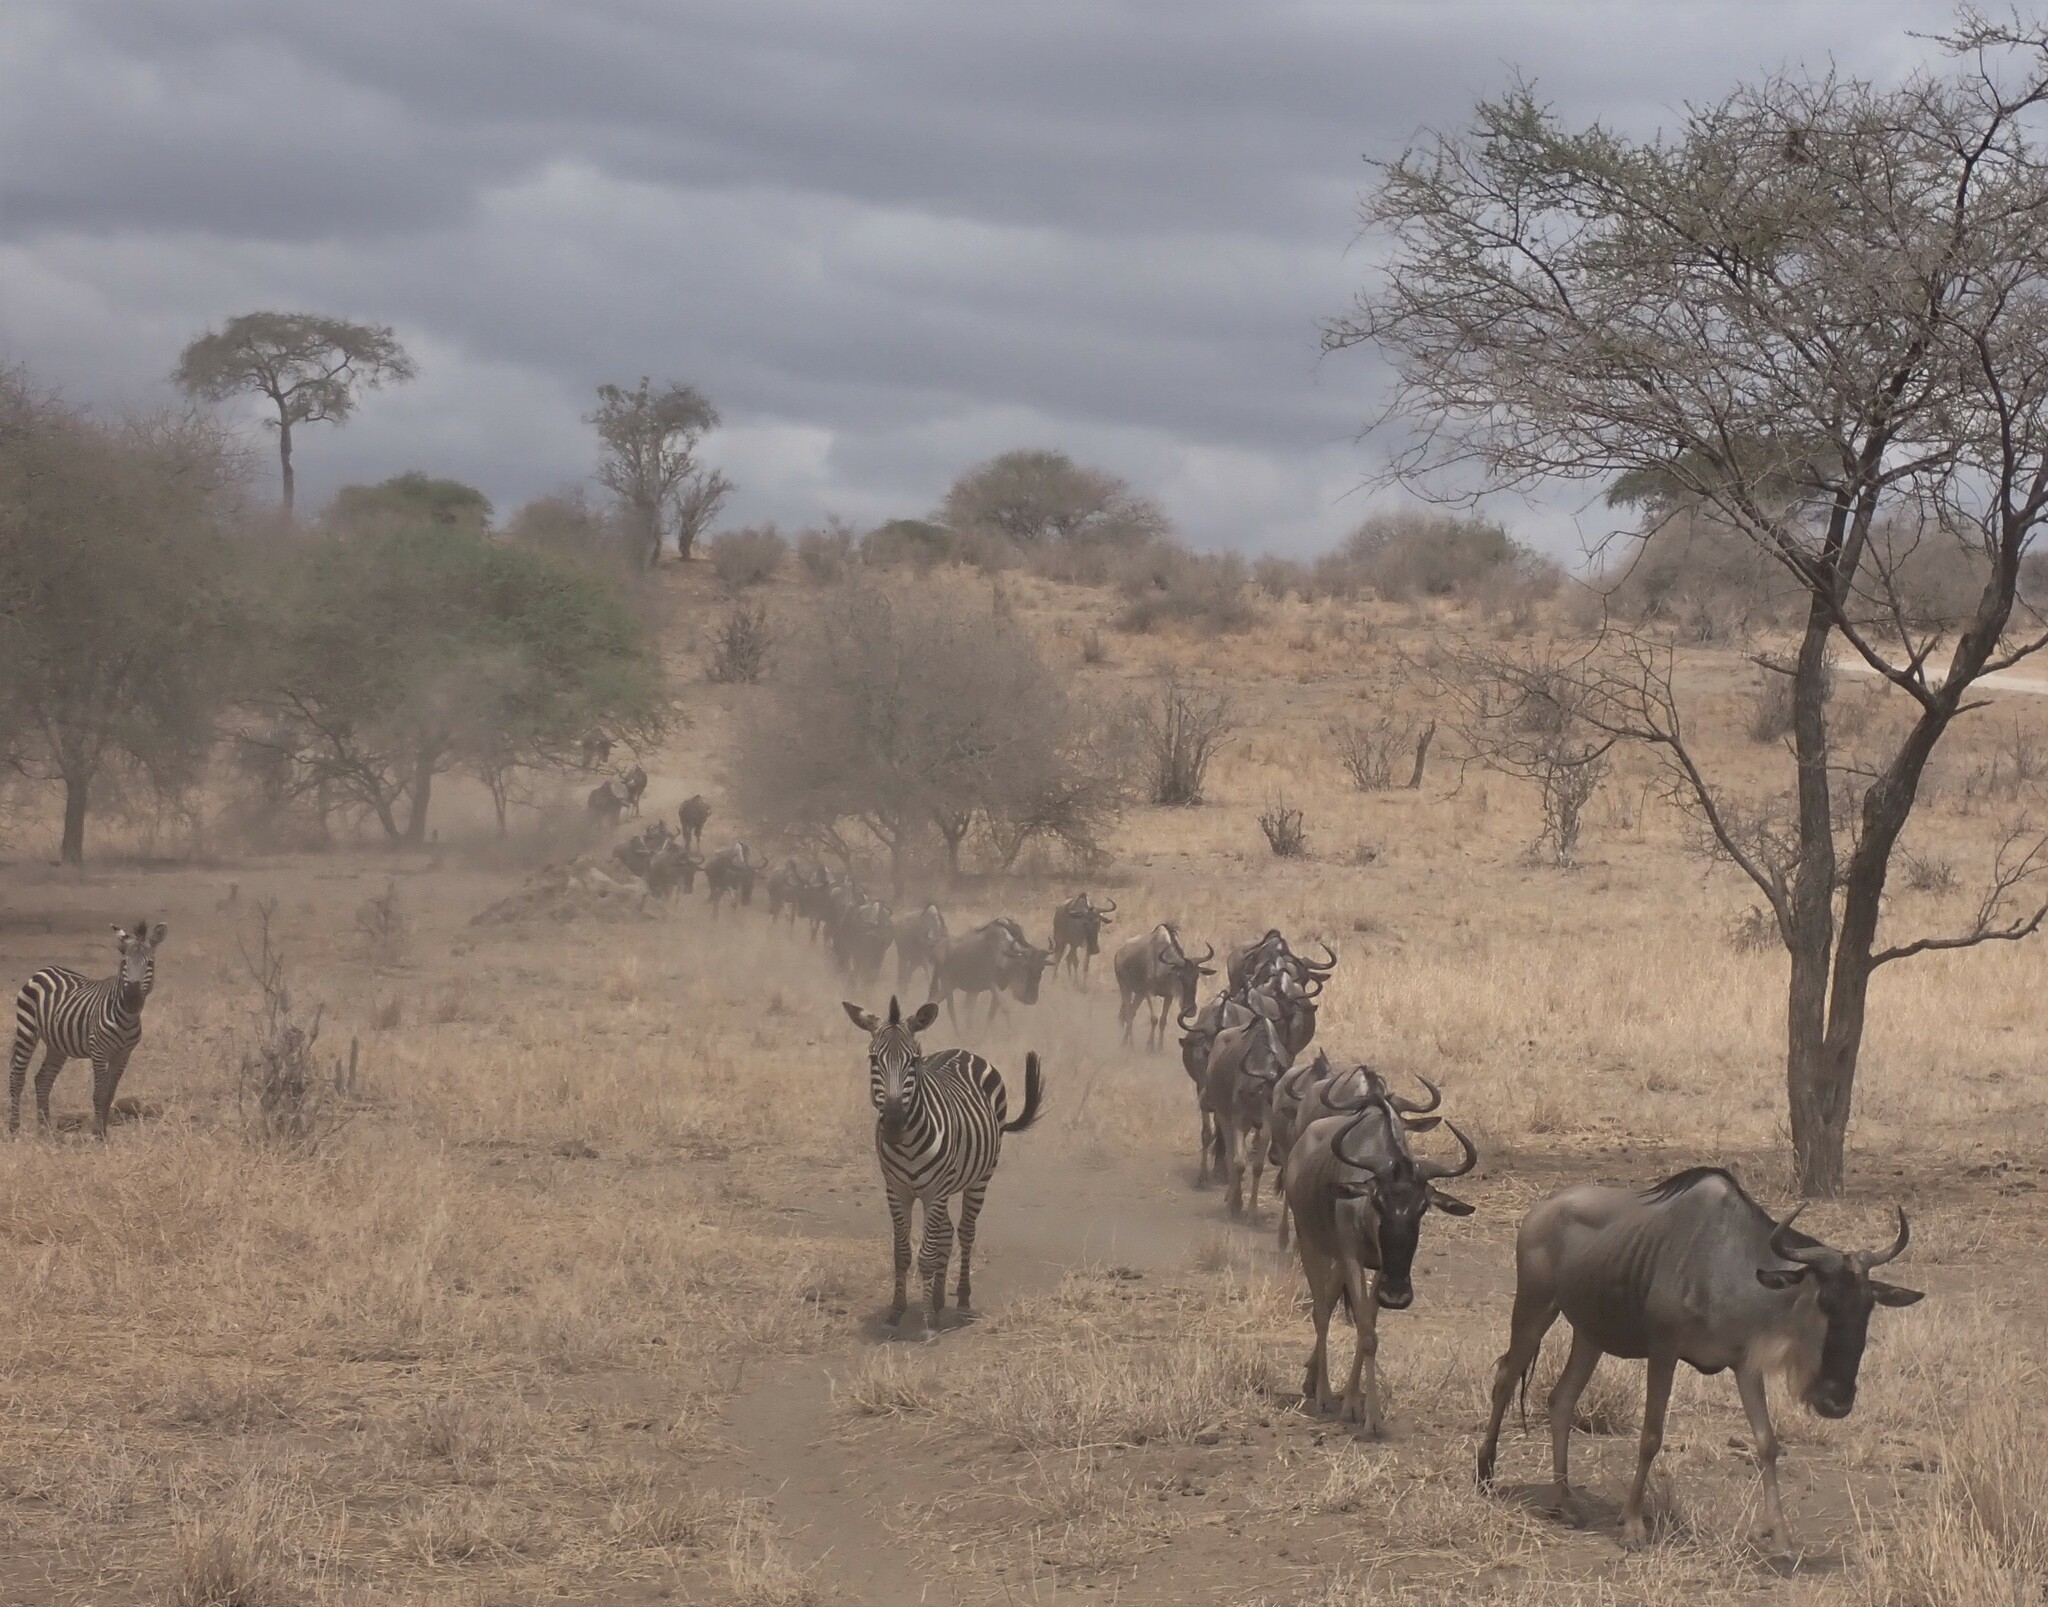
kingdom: Animalia
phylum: Chordata
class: Mammalia
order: Artiodactyla
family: Bovidae
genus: Connochaetes
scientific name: Connochaetes taurinus
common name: Blue wildebeest
